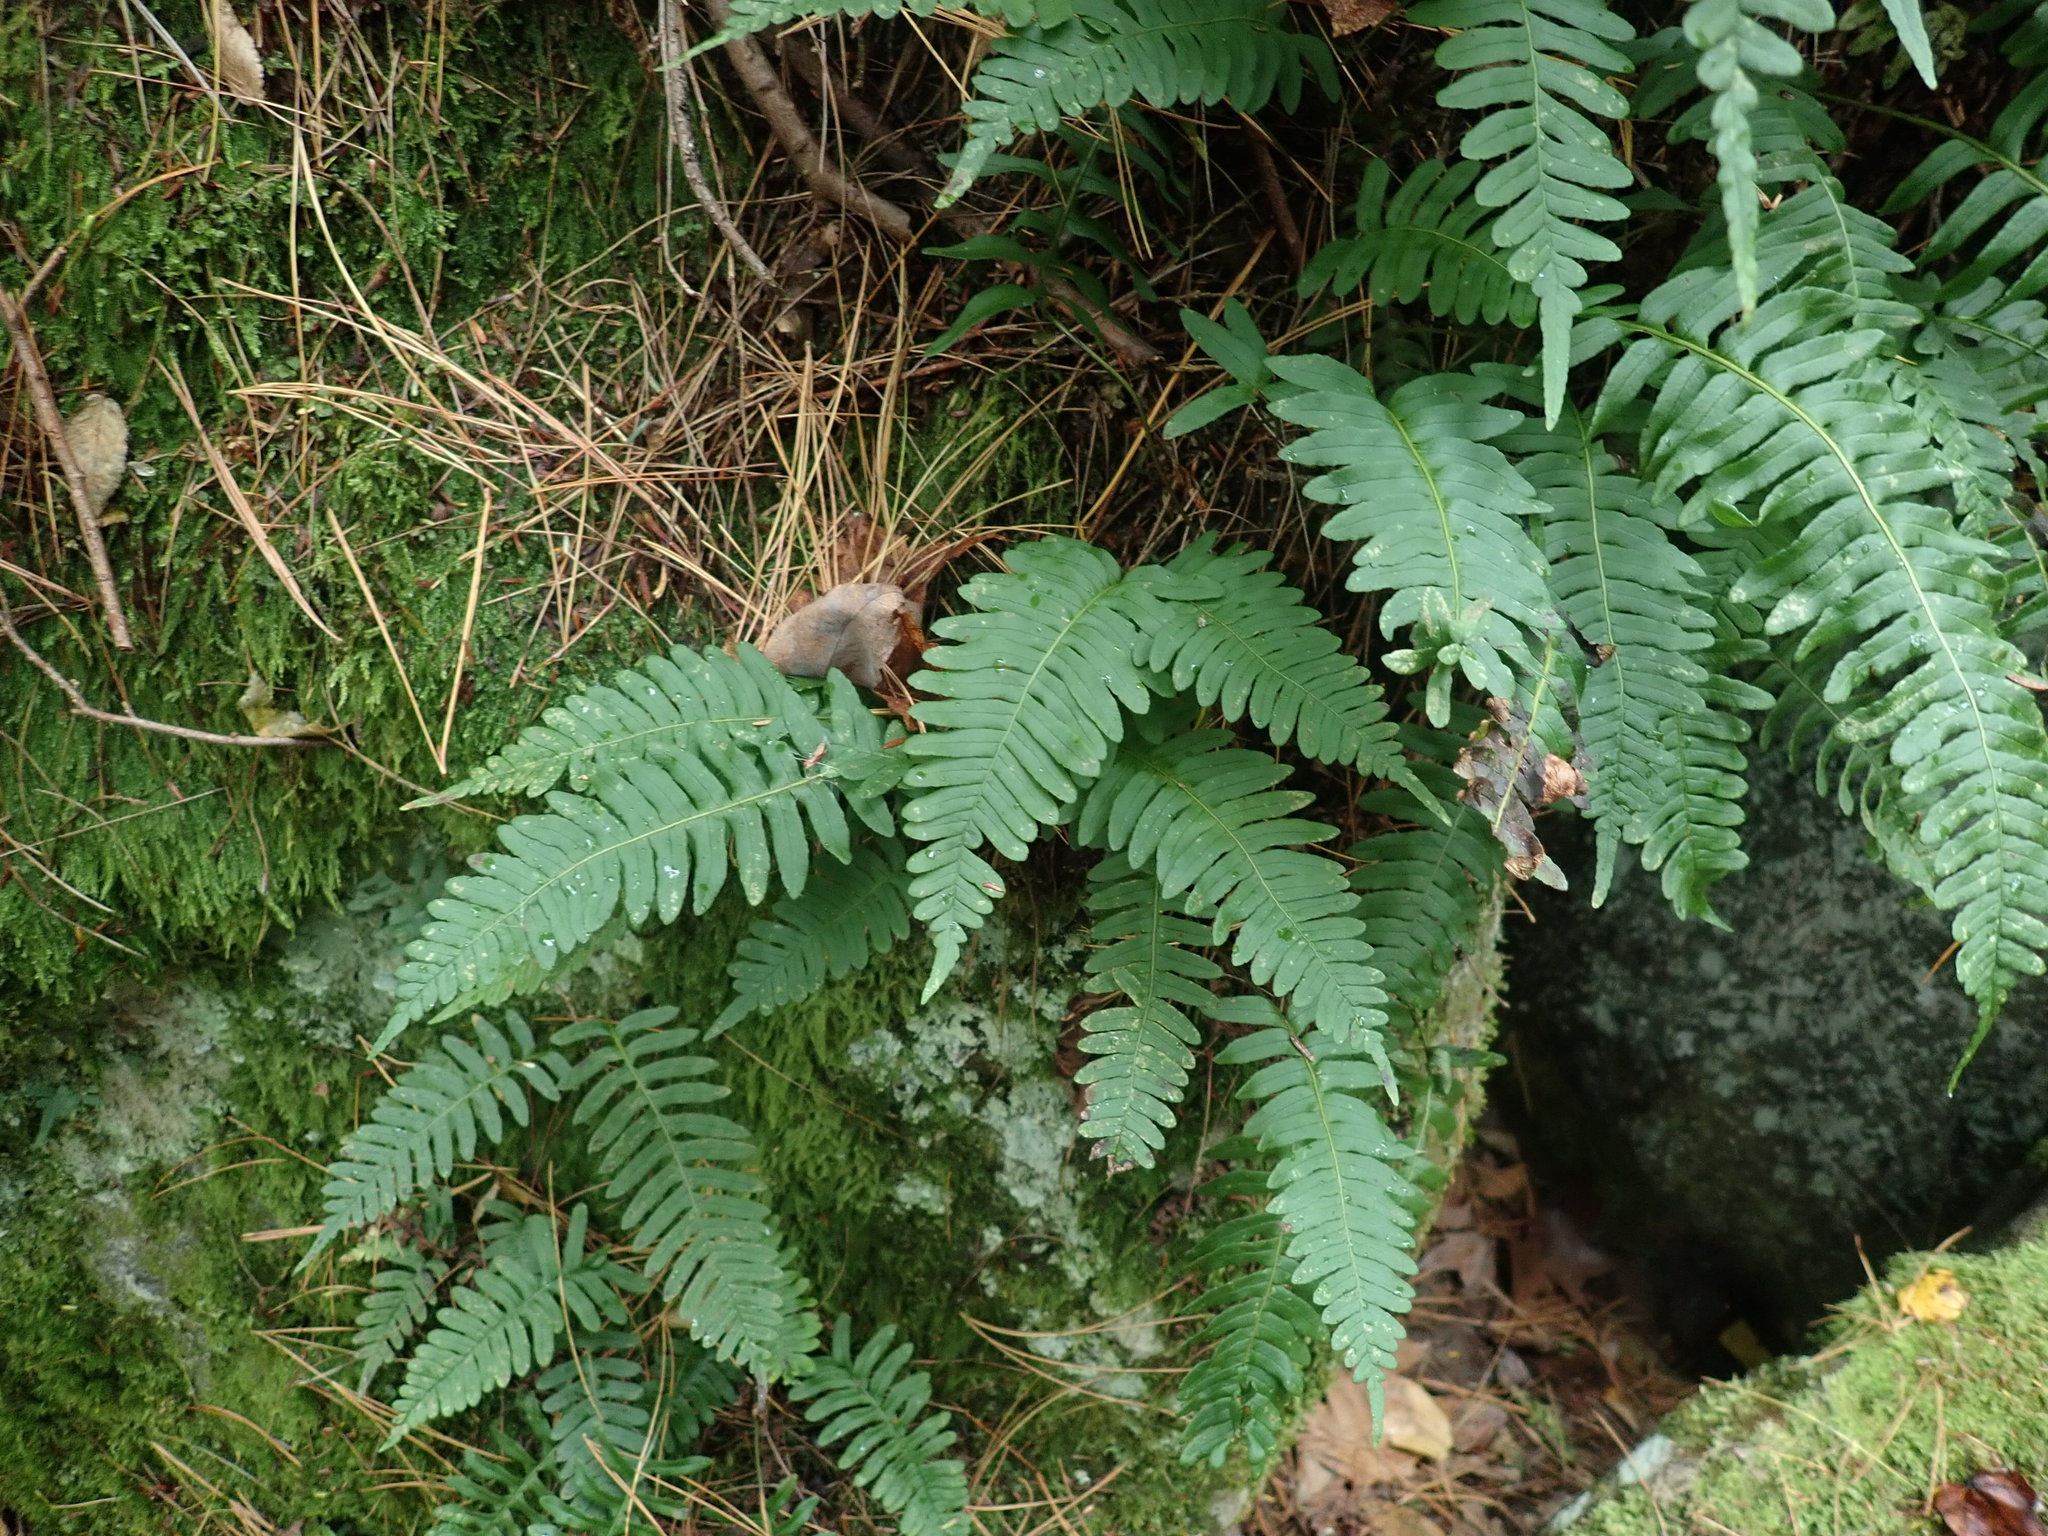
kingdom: Plantae
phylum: Tracheophyta
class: Polypodiopsida
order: Polypodiales
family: Polypodiaceae
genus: Polypodium
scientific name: Polypodium
